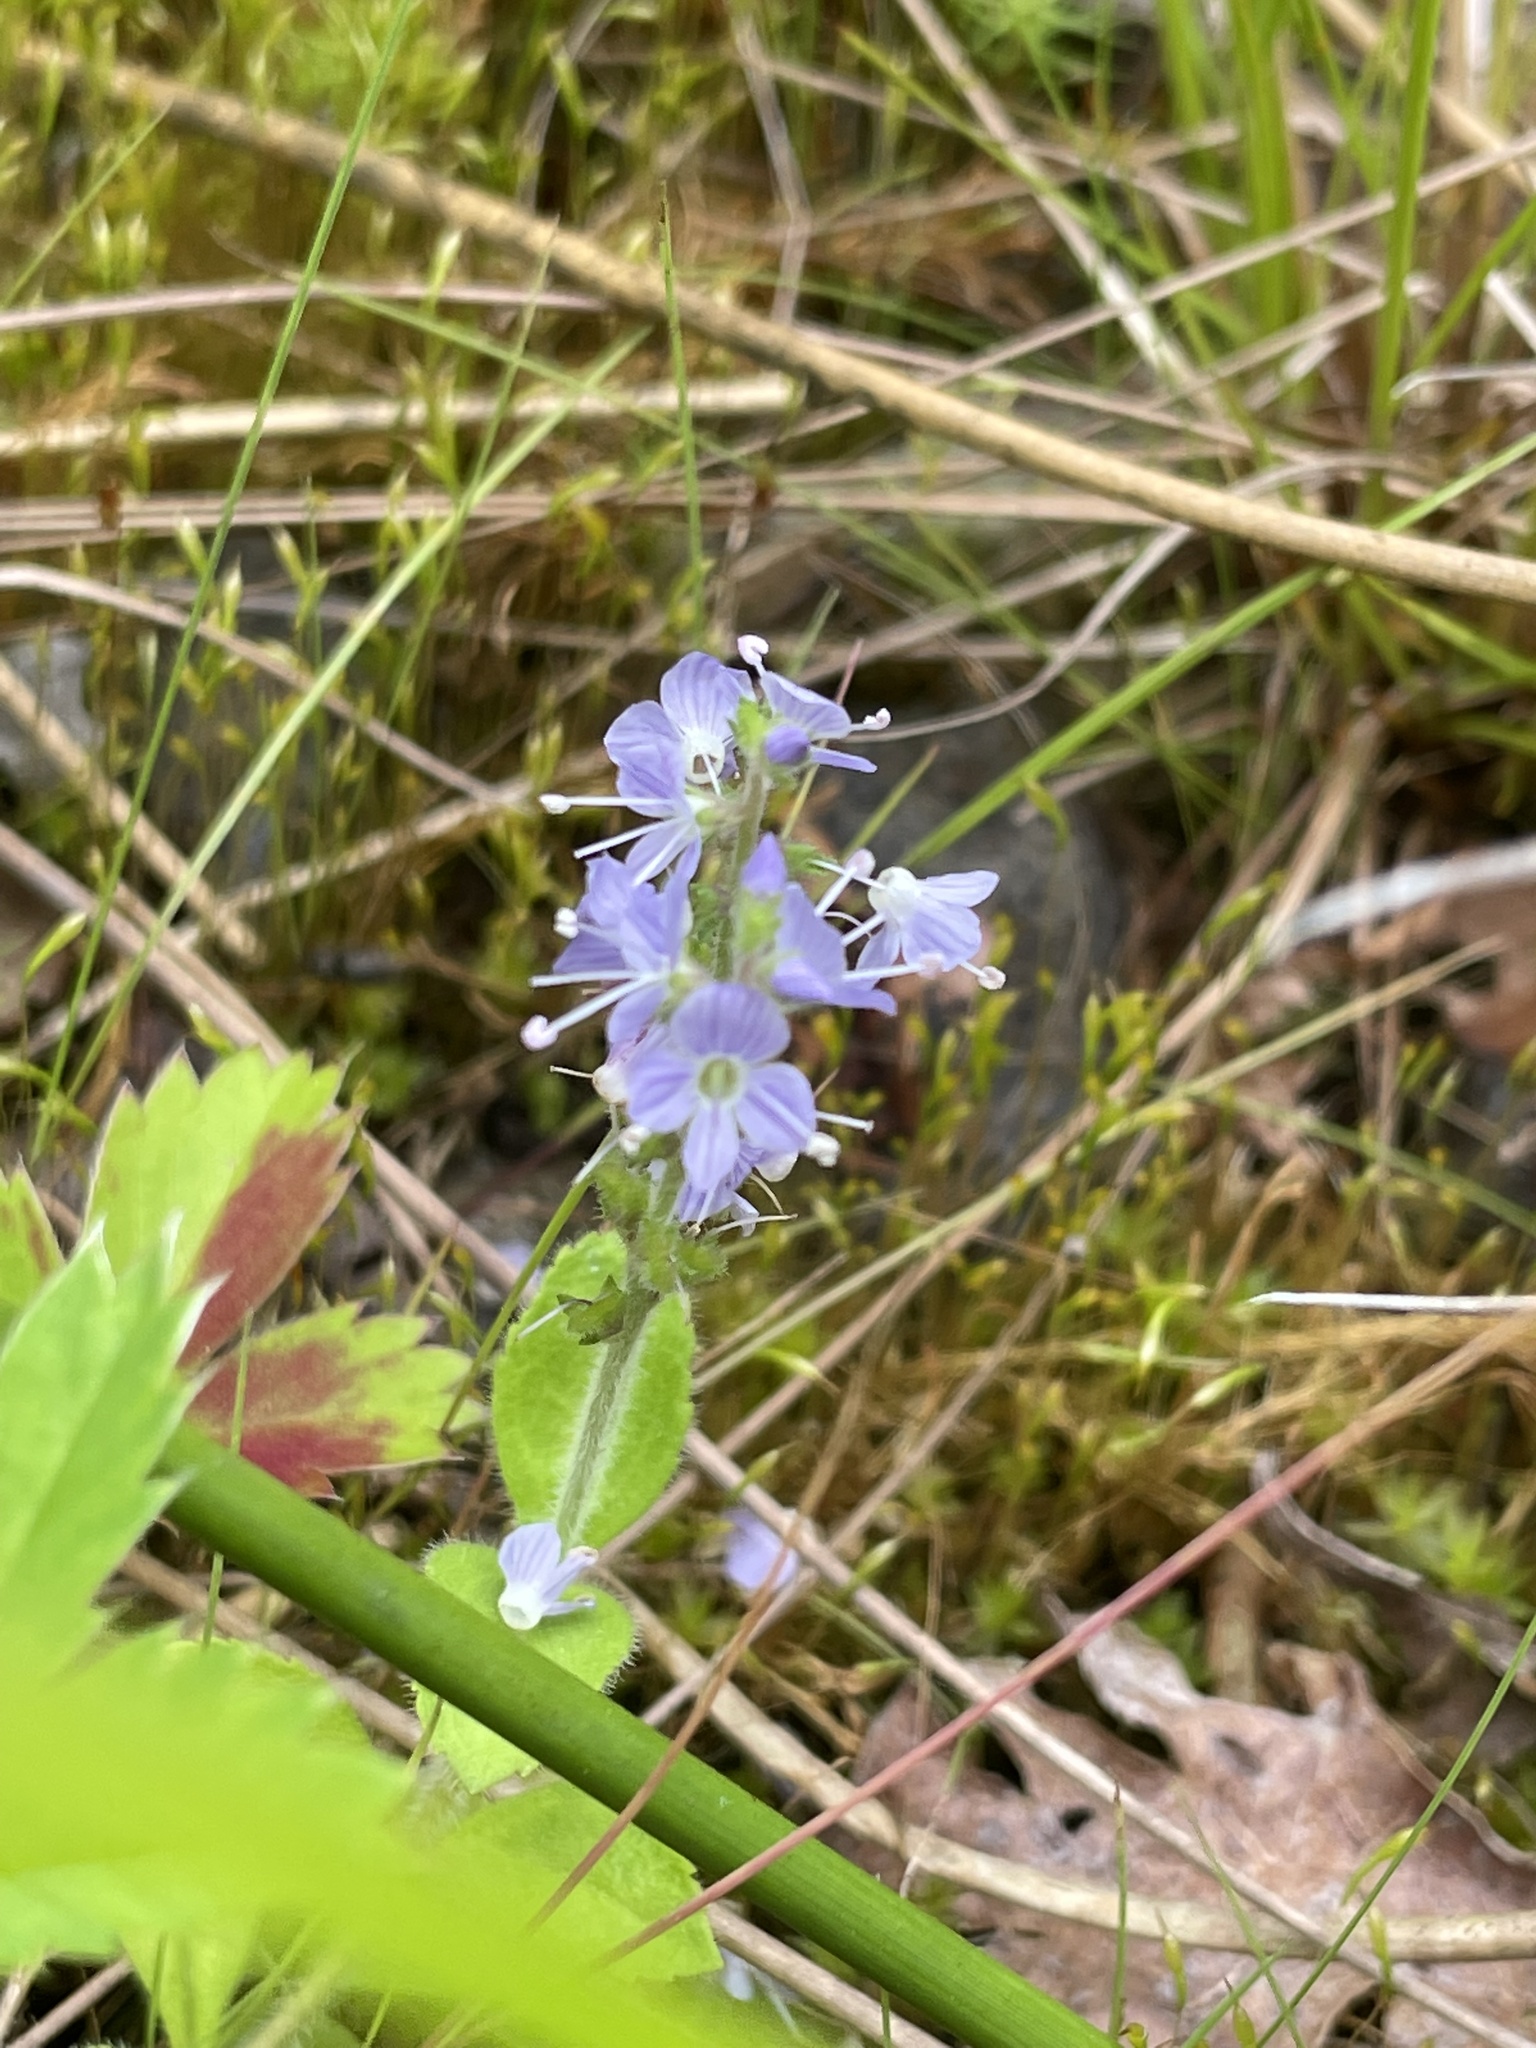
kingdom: Plantae
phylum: Tracheophyta
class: Magnoliopsida
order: Lamiales
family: Plantaginaceae
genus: Veronica
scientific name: Veronica officinalis
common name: Common speedwell
